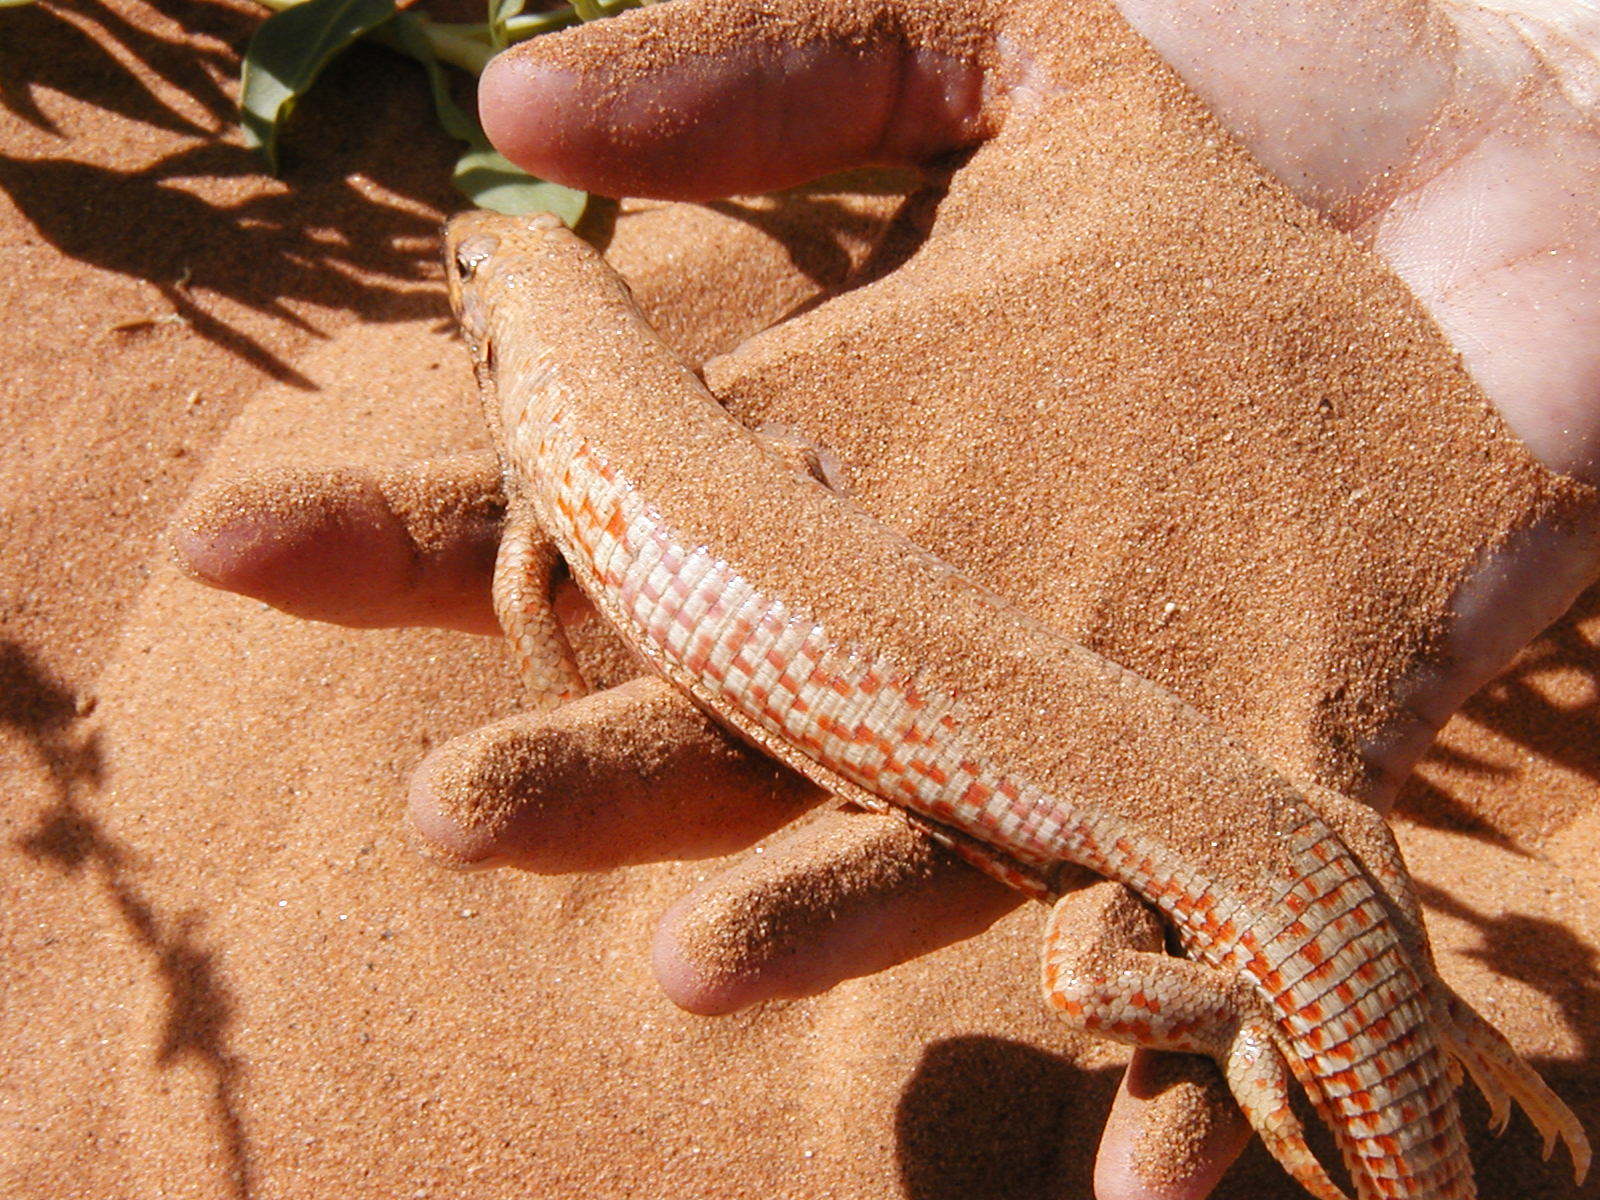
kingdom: Animalia
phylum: Chordata
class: Squamata
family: Gerrhosauridae
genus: Gerrhosaurus
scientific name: Gerrhosaurus skoogi
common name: Desert plated lizard
